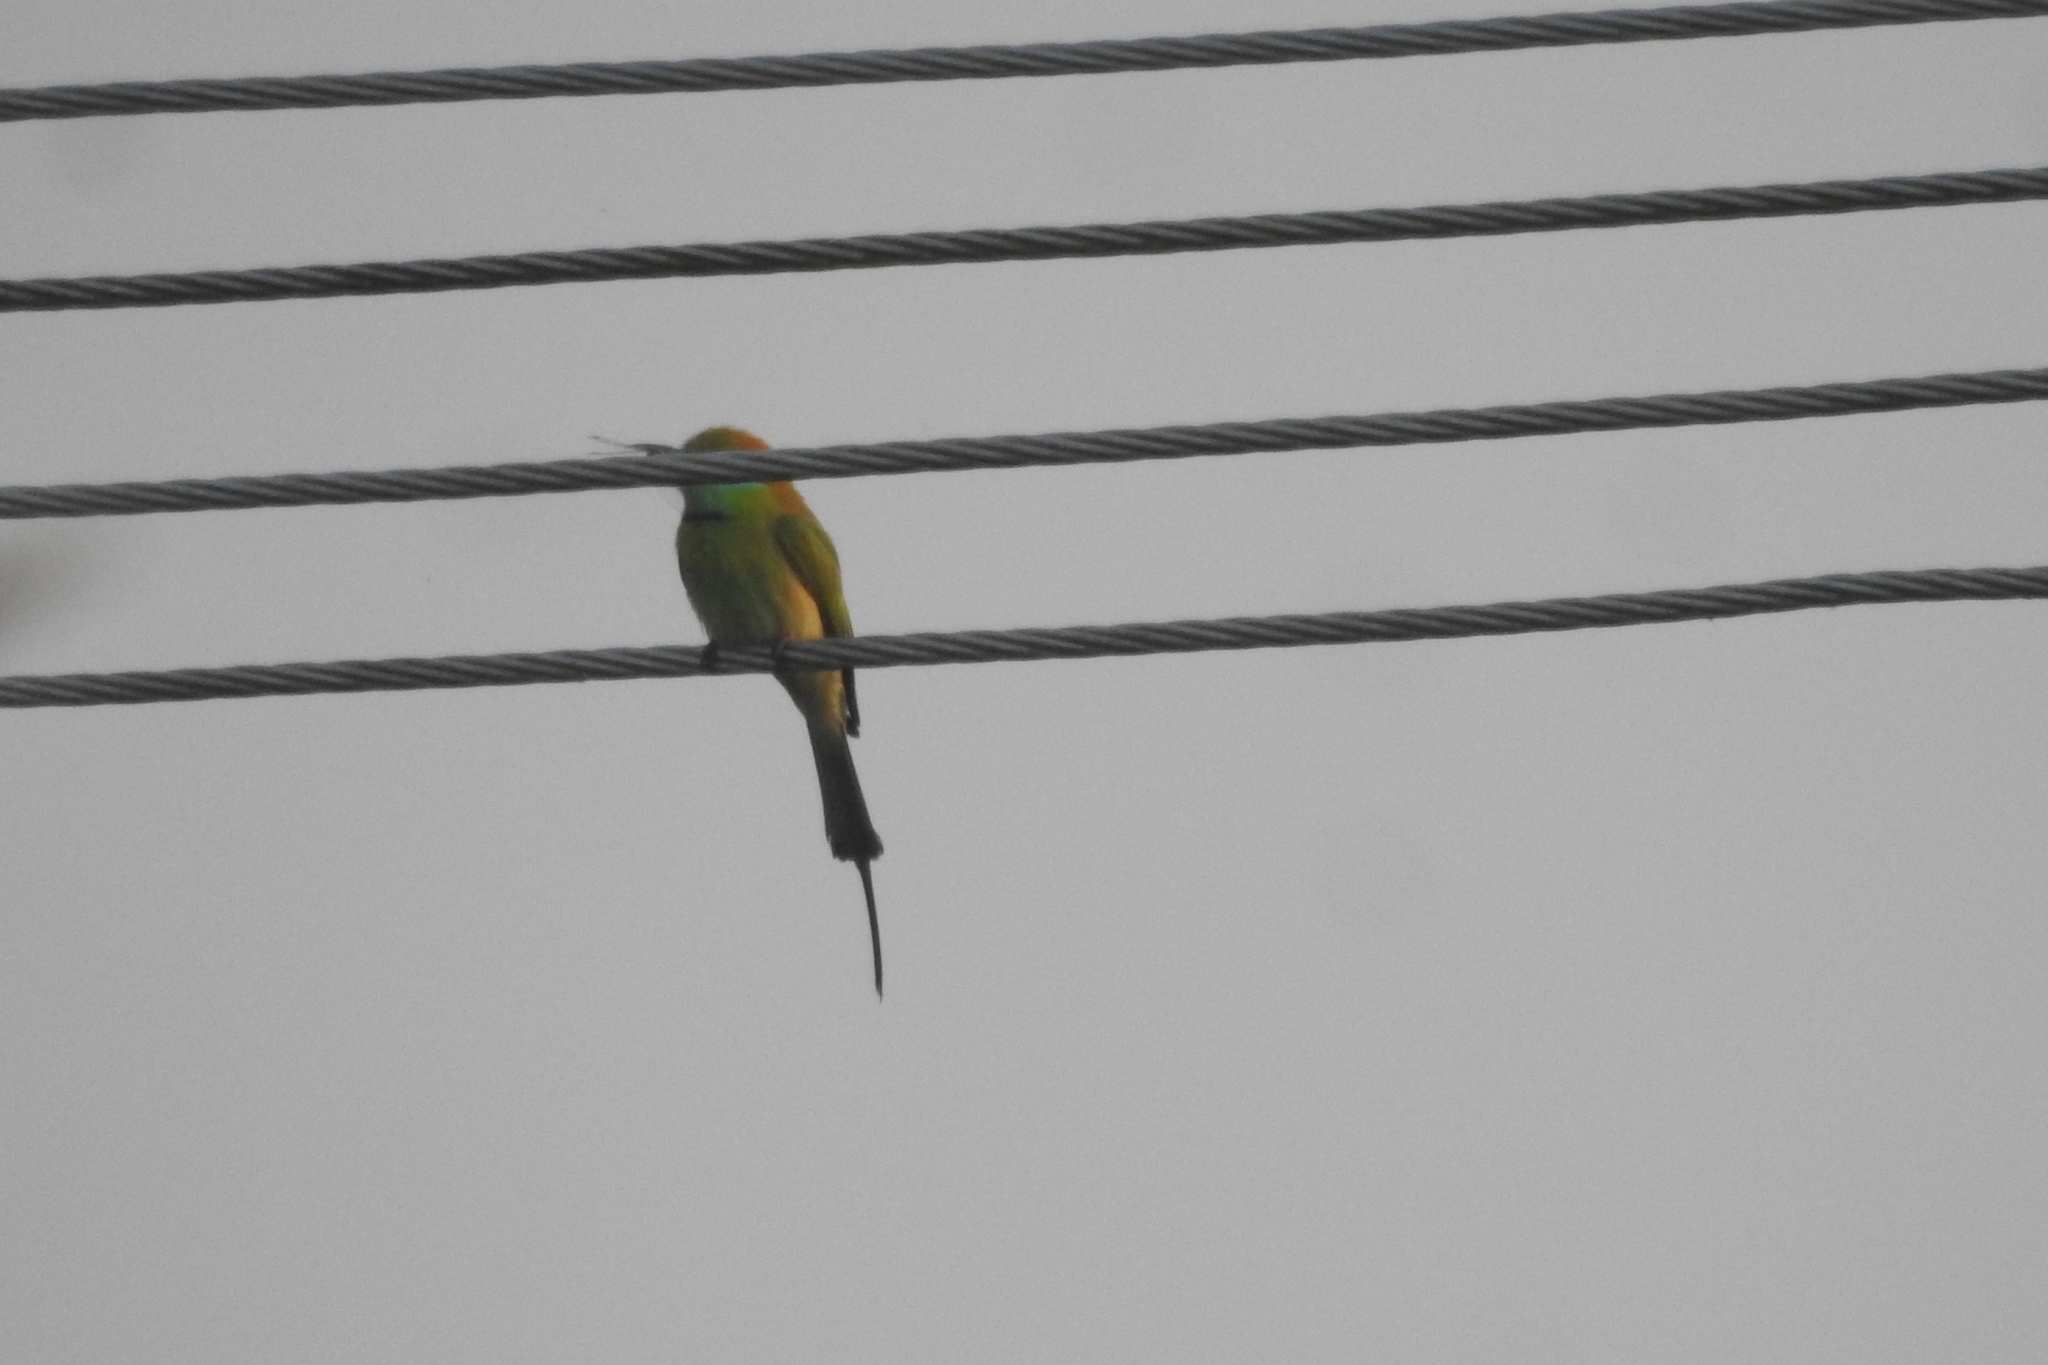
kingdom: Animalia
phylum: Chordata
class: Aves
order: Coraciiformes
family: Meropidae
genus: Merops
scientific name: Merops orientalis
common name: Green bee-eater
